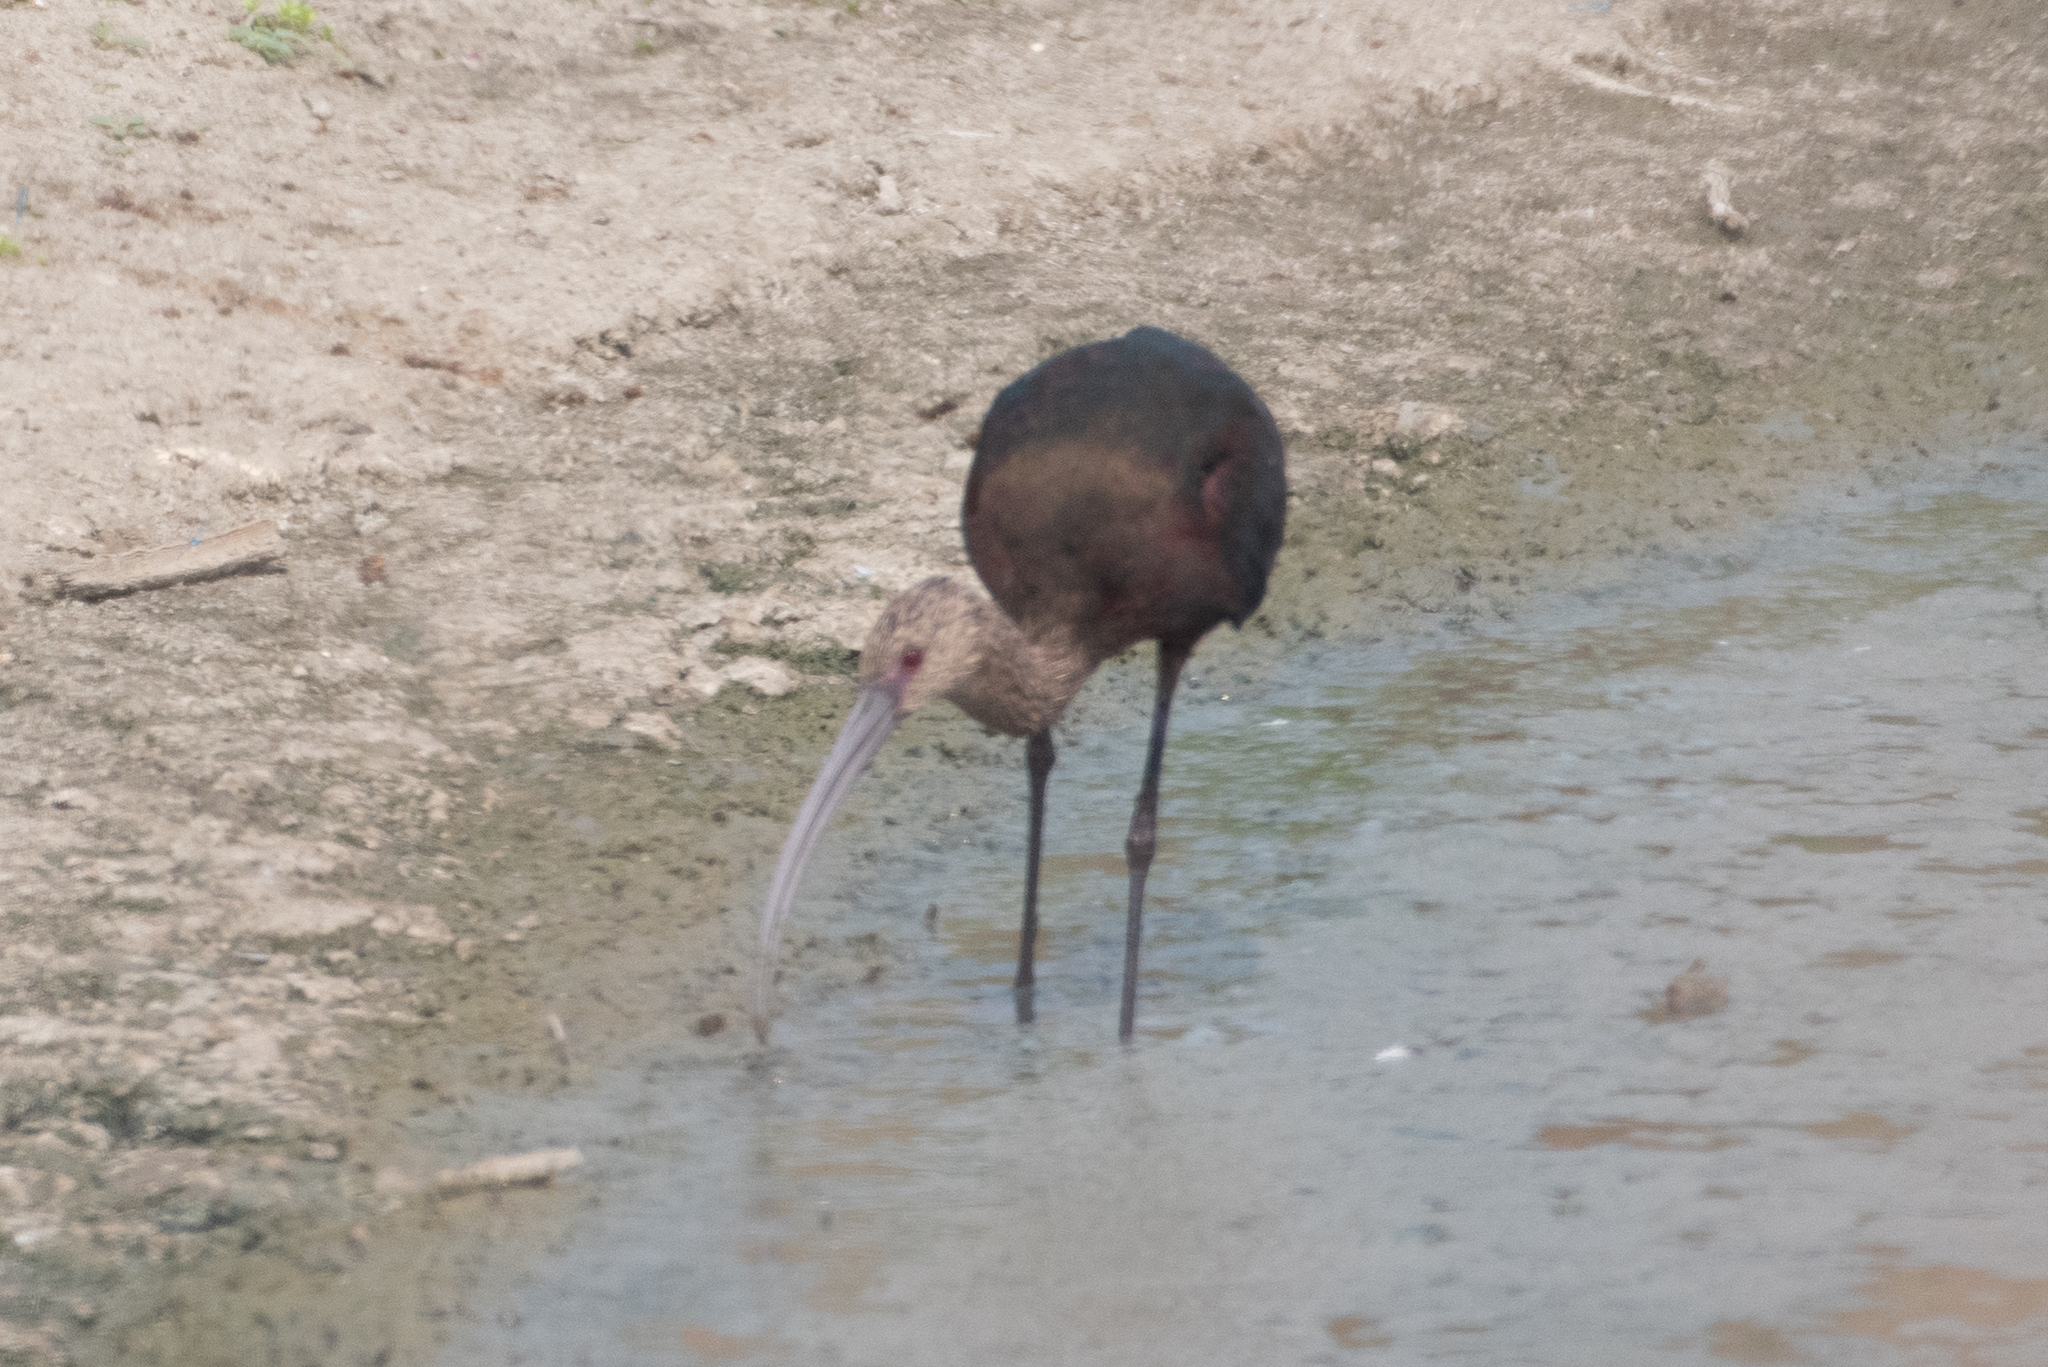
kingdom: Animalia
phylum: Chordata
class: Aves
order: Pelecaniformes
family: Threskiornithidae
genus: Plegadis
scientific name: Plegadis chihi
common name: White-faced ibis
